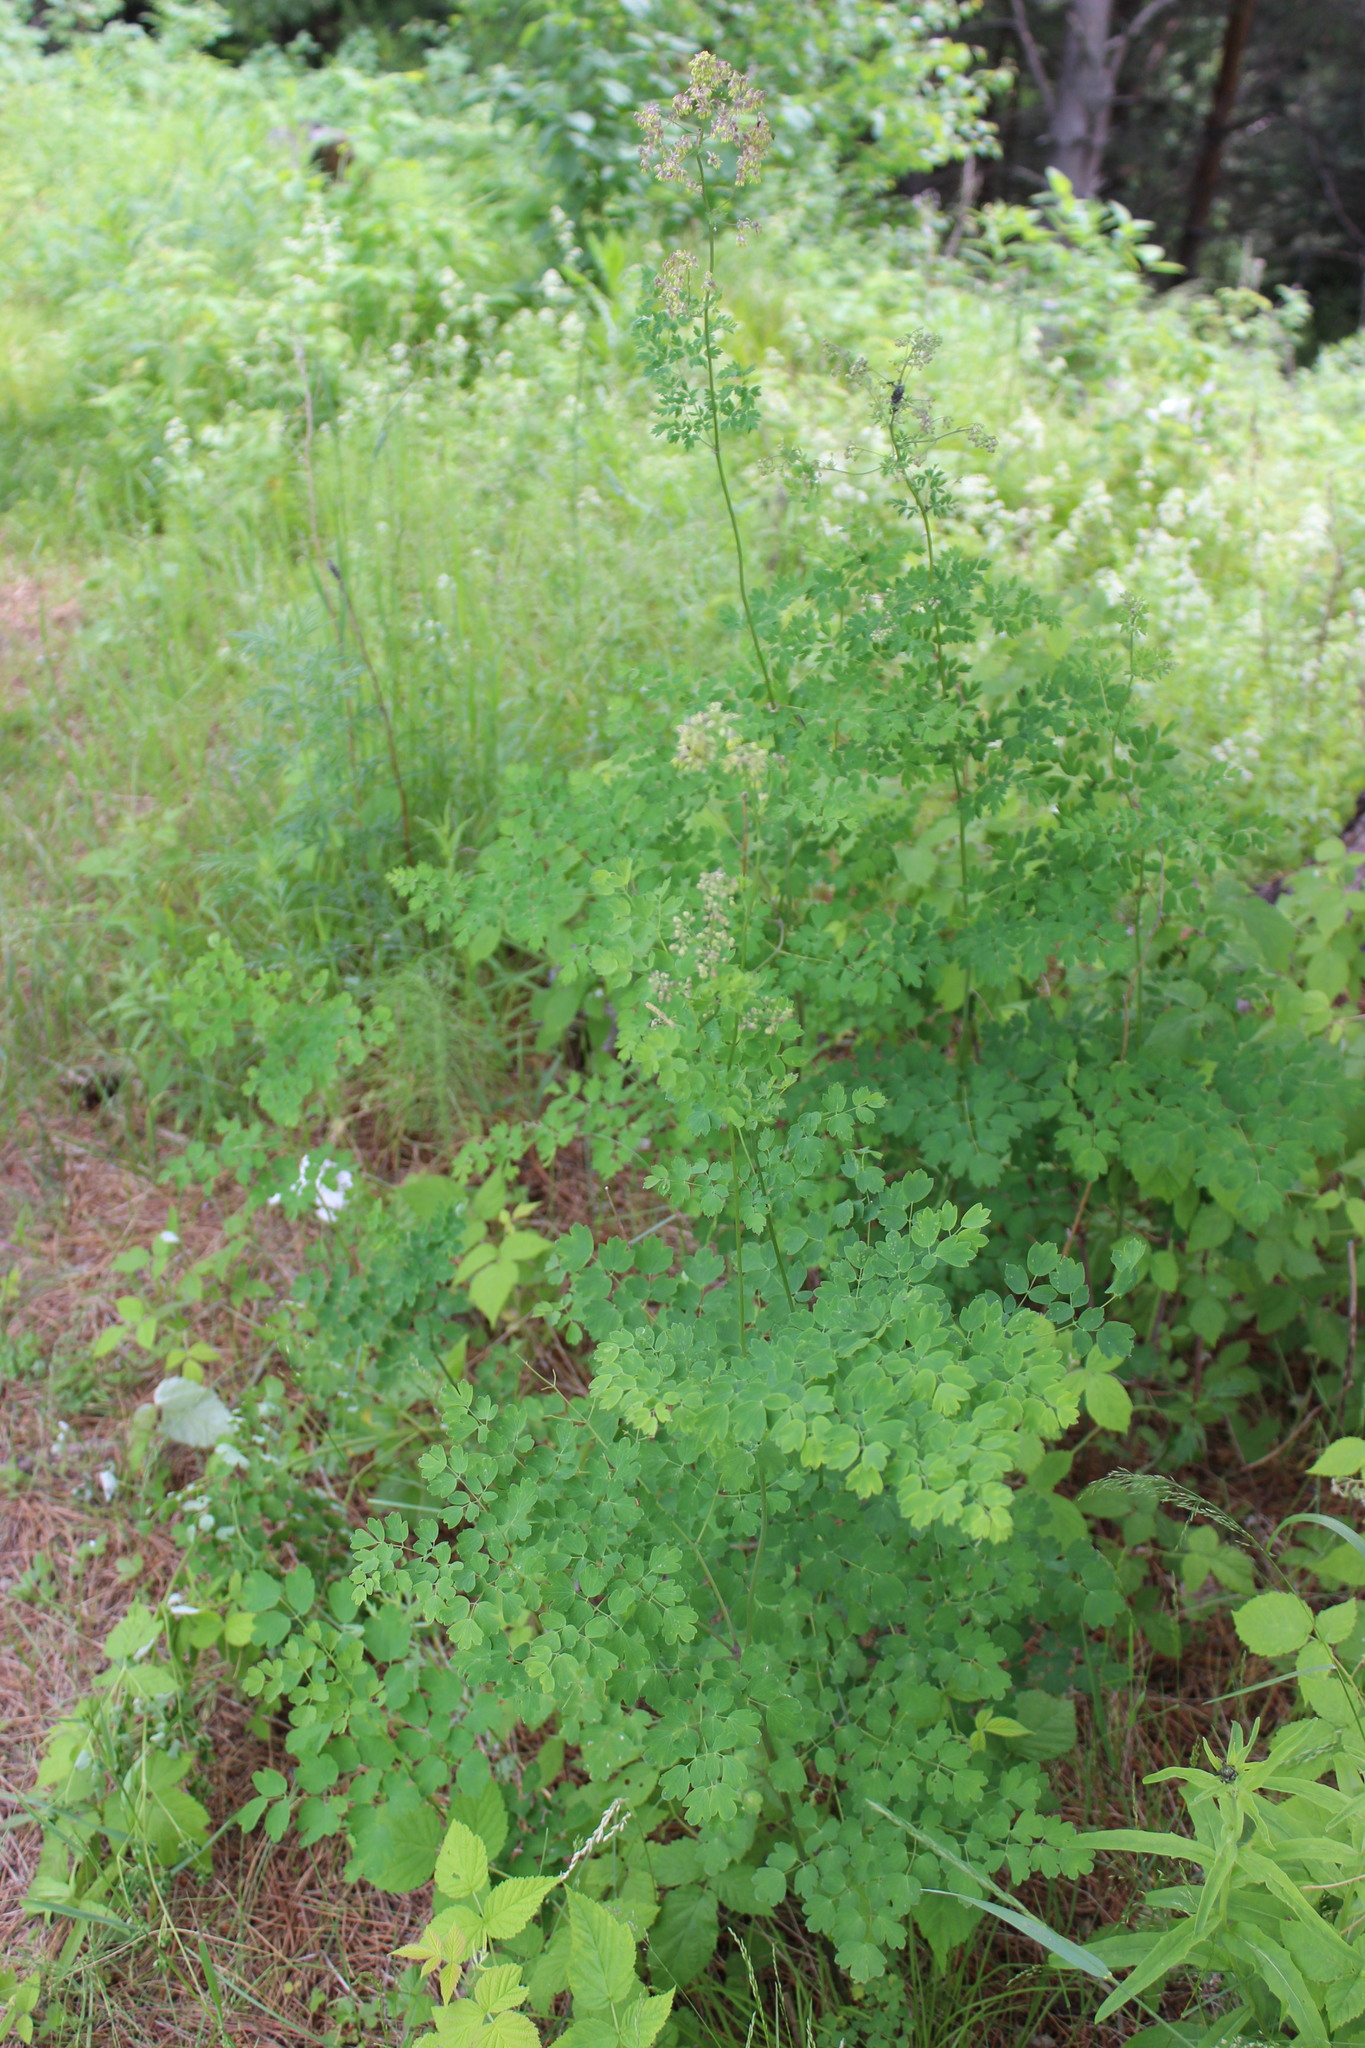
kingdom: Plantae
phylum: Tracheophyta
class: Magnoliopsida
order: Ranunculales
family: Ranunculaceae
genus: Thalictrum
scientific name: Thalictrum minus
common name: Lesser meadow-rue
